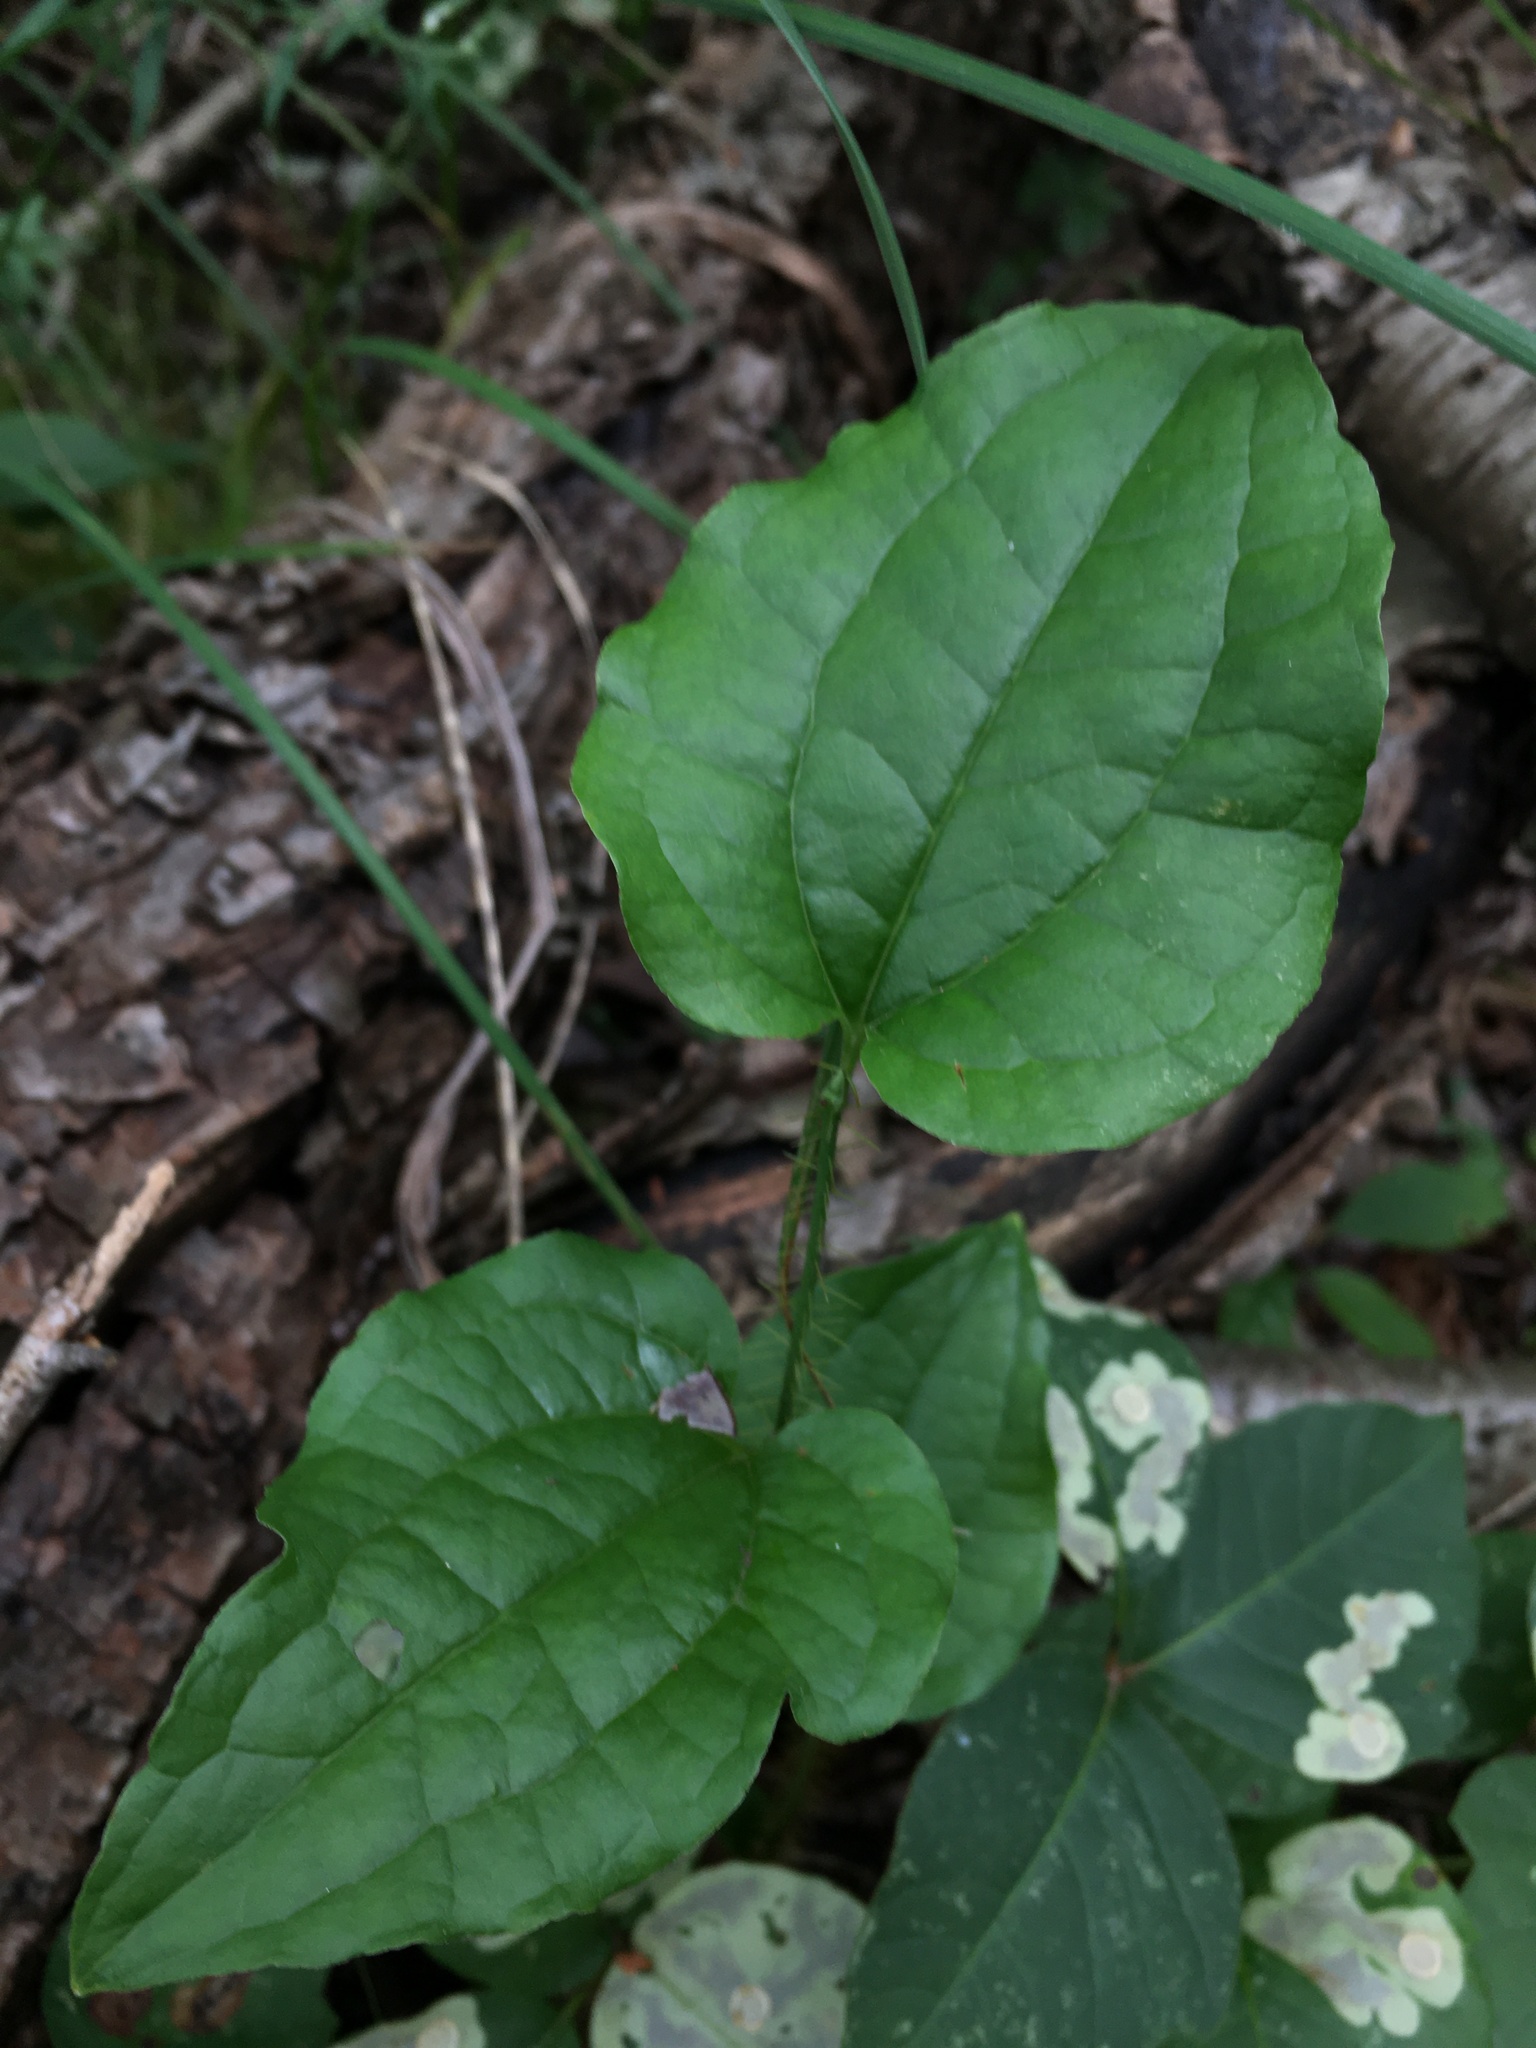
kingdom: Plantae
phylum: Tracheophyta
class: Liliopsida
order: Liliales
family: Smilacaceae
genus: Smilax
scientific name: Smilax tamnoides
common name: Hellfetter
